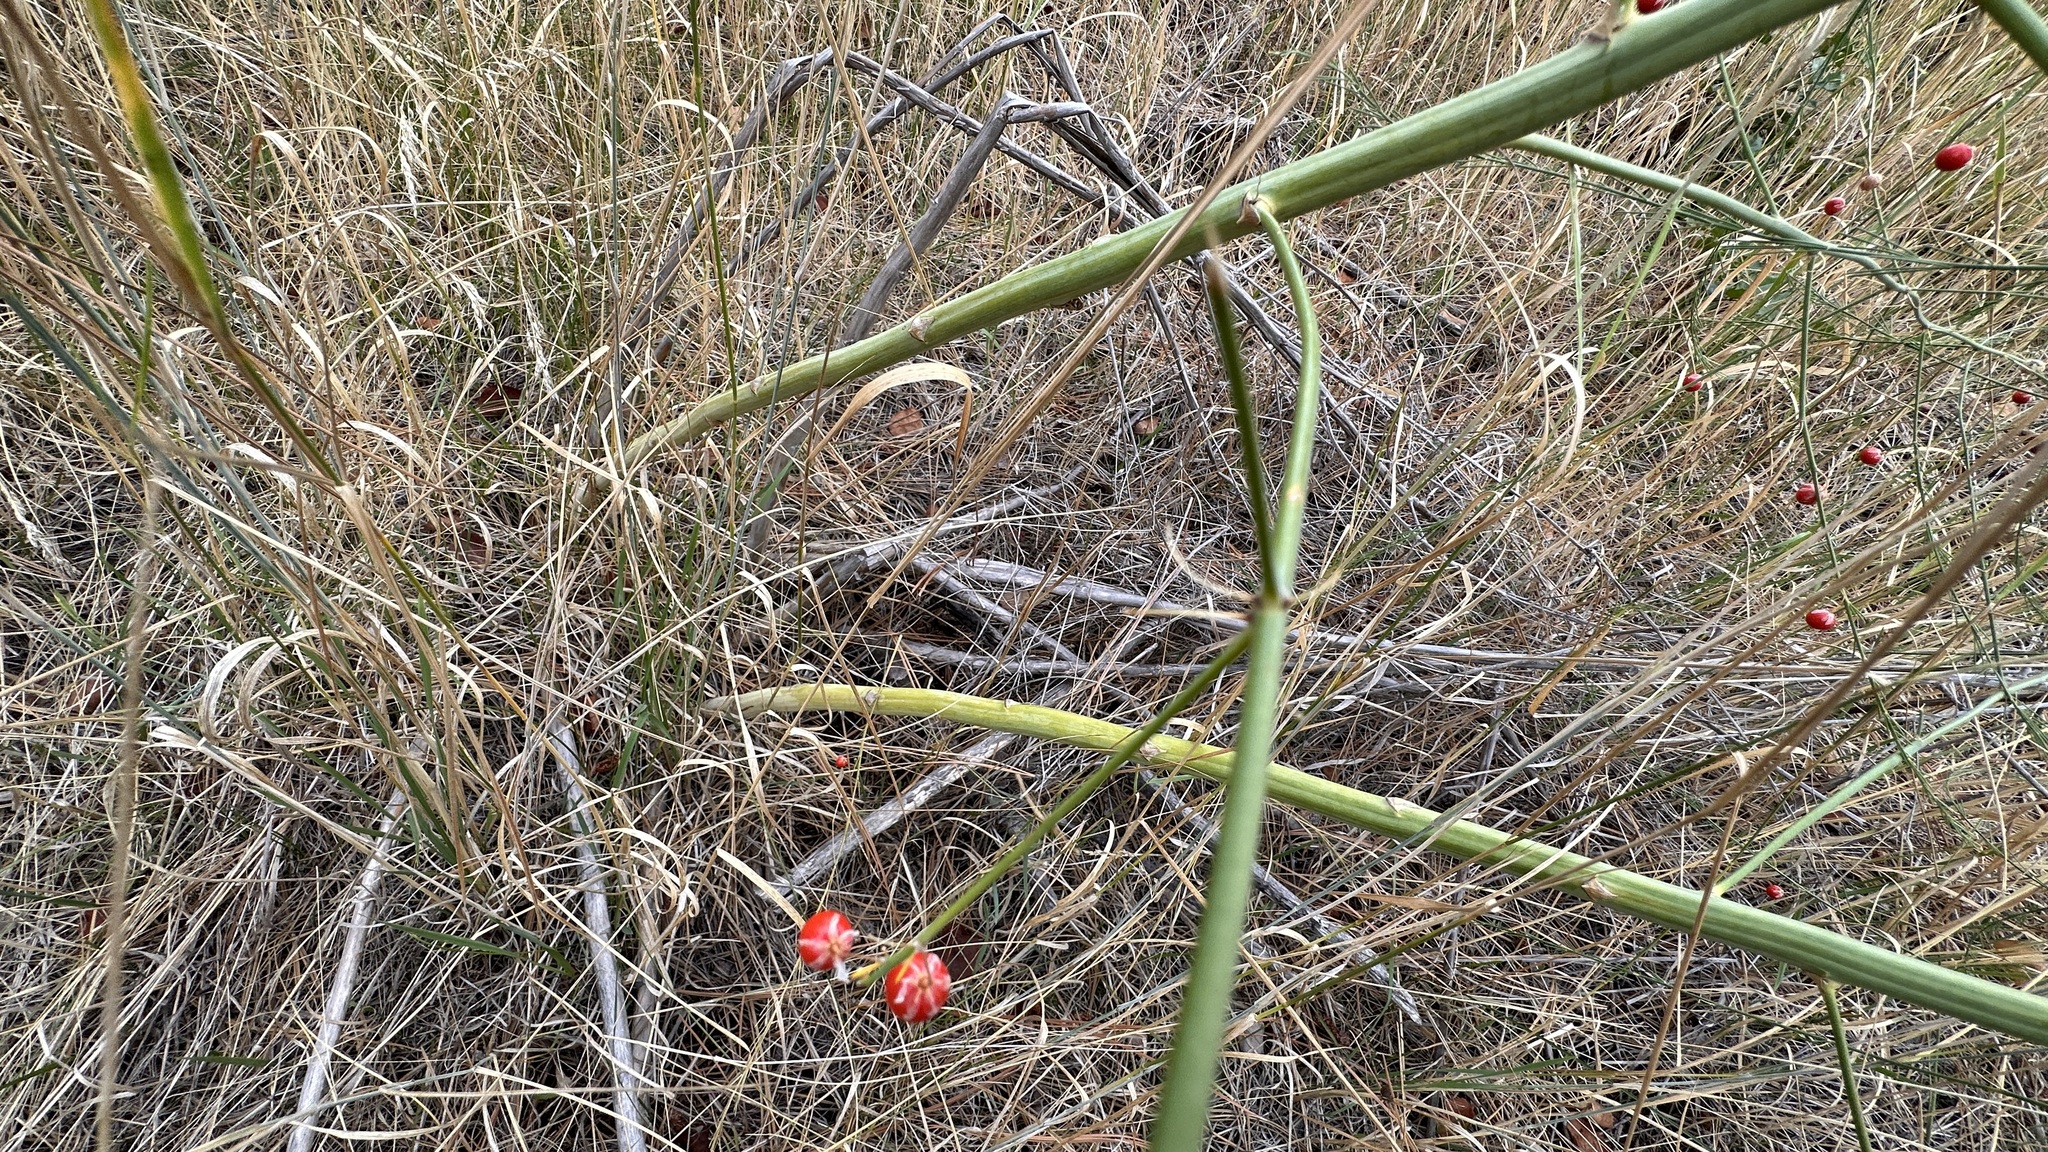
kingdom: Plantae
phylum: Tracheophyta
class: Liliopsida
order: Asparagales
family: Asparagaceae
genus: Asparagus
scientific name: Asparagus officinalis
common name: Garden asparagus
